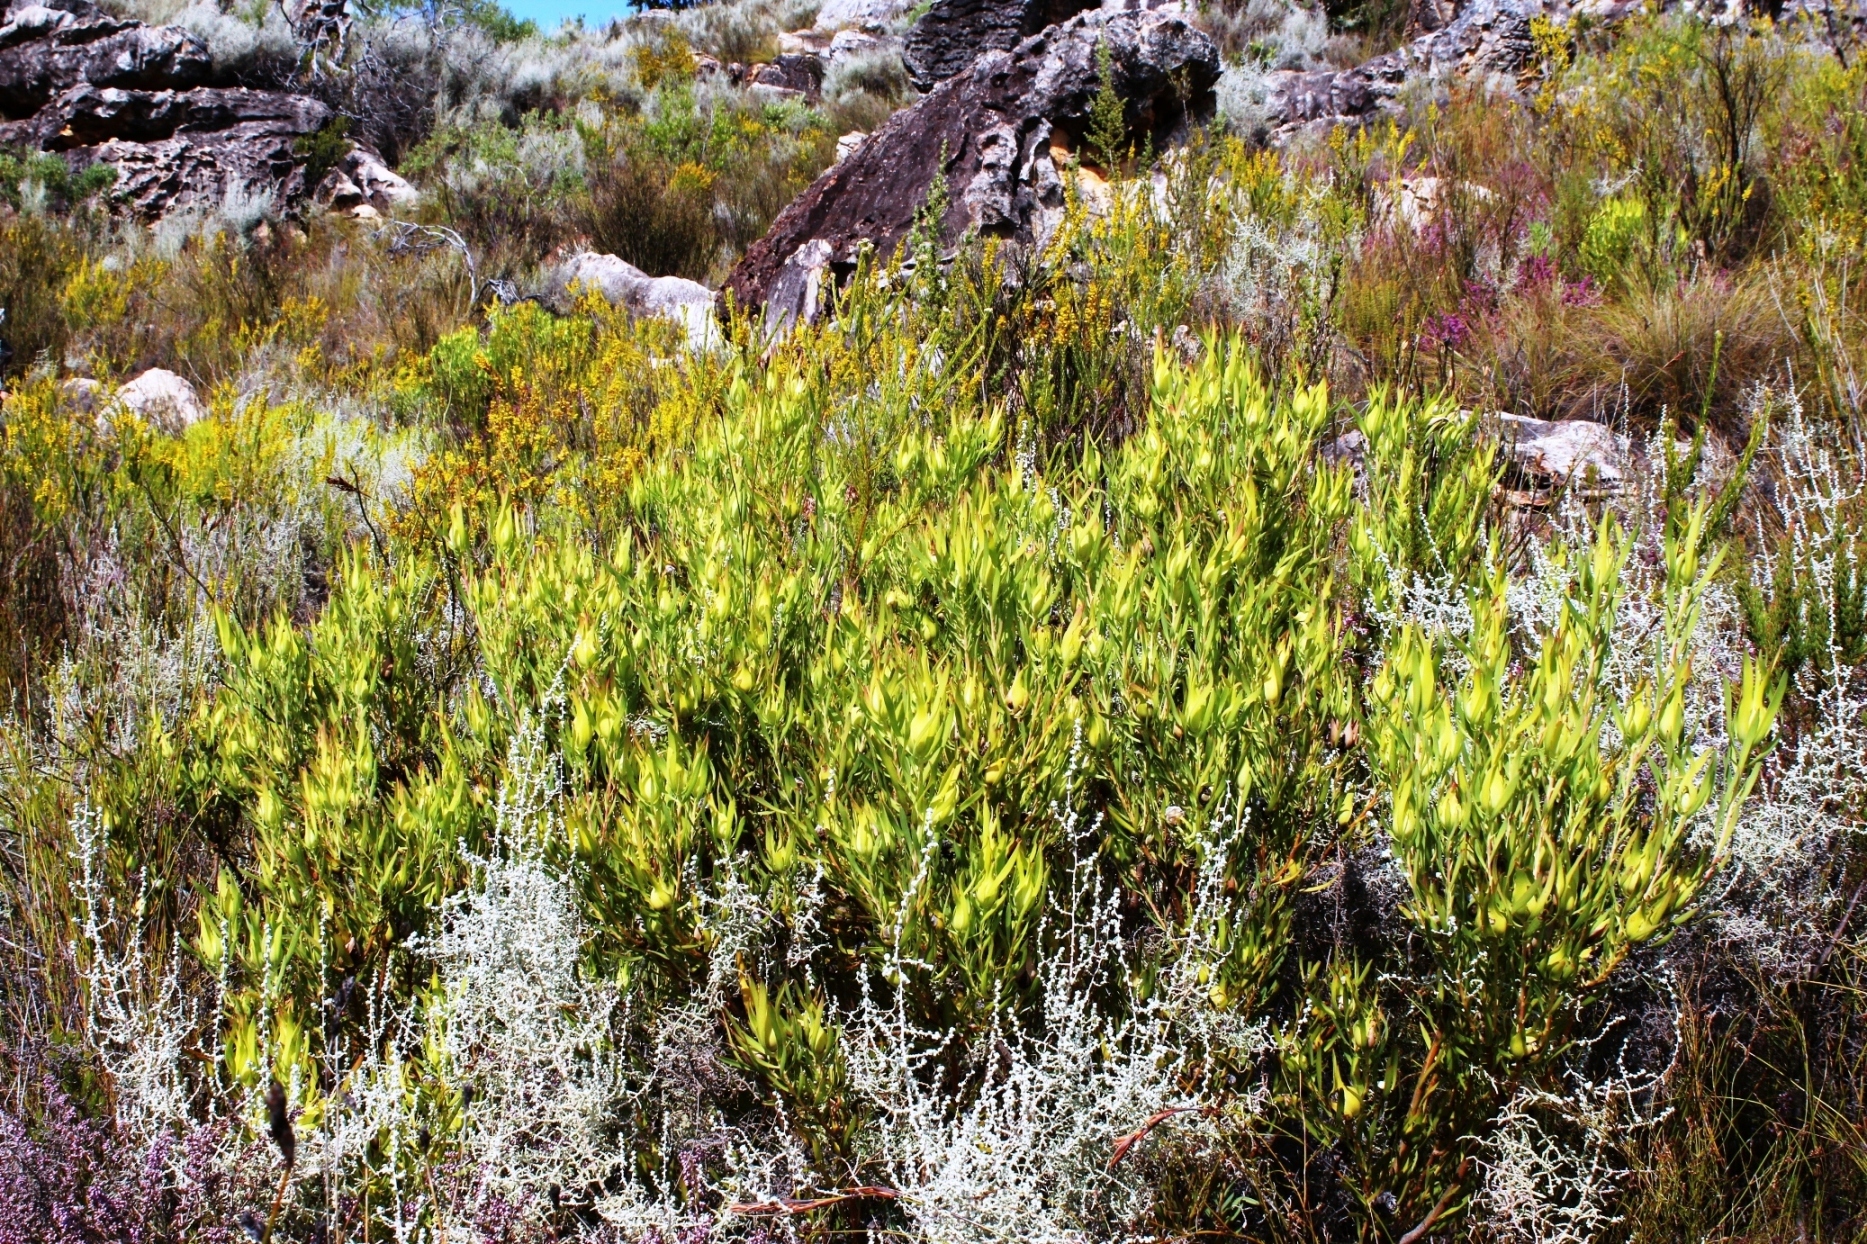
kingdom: Plantae
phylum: Tracheophyta
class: Magnoliopsida
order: Proteales
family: Proteaceae
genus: Leucadendron
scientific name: Leucadendron salignum
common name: Common sunshine conebush
